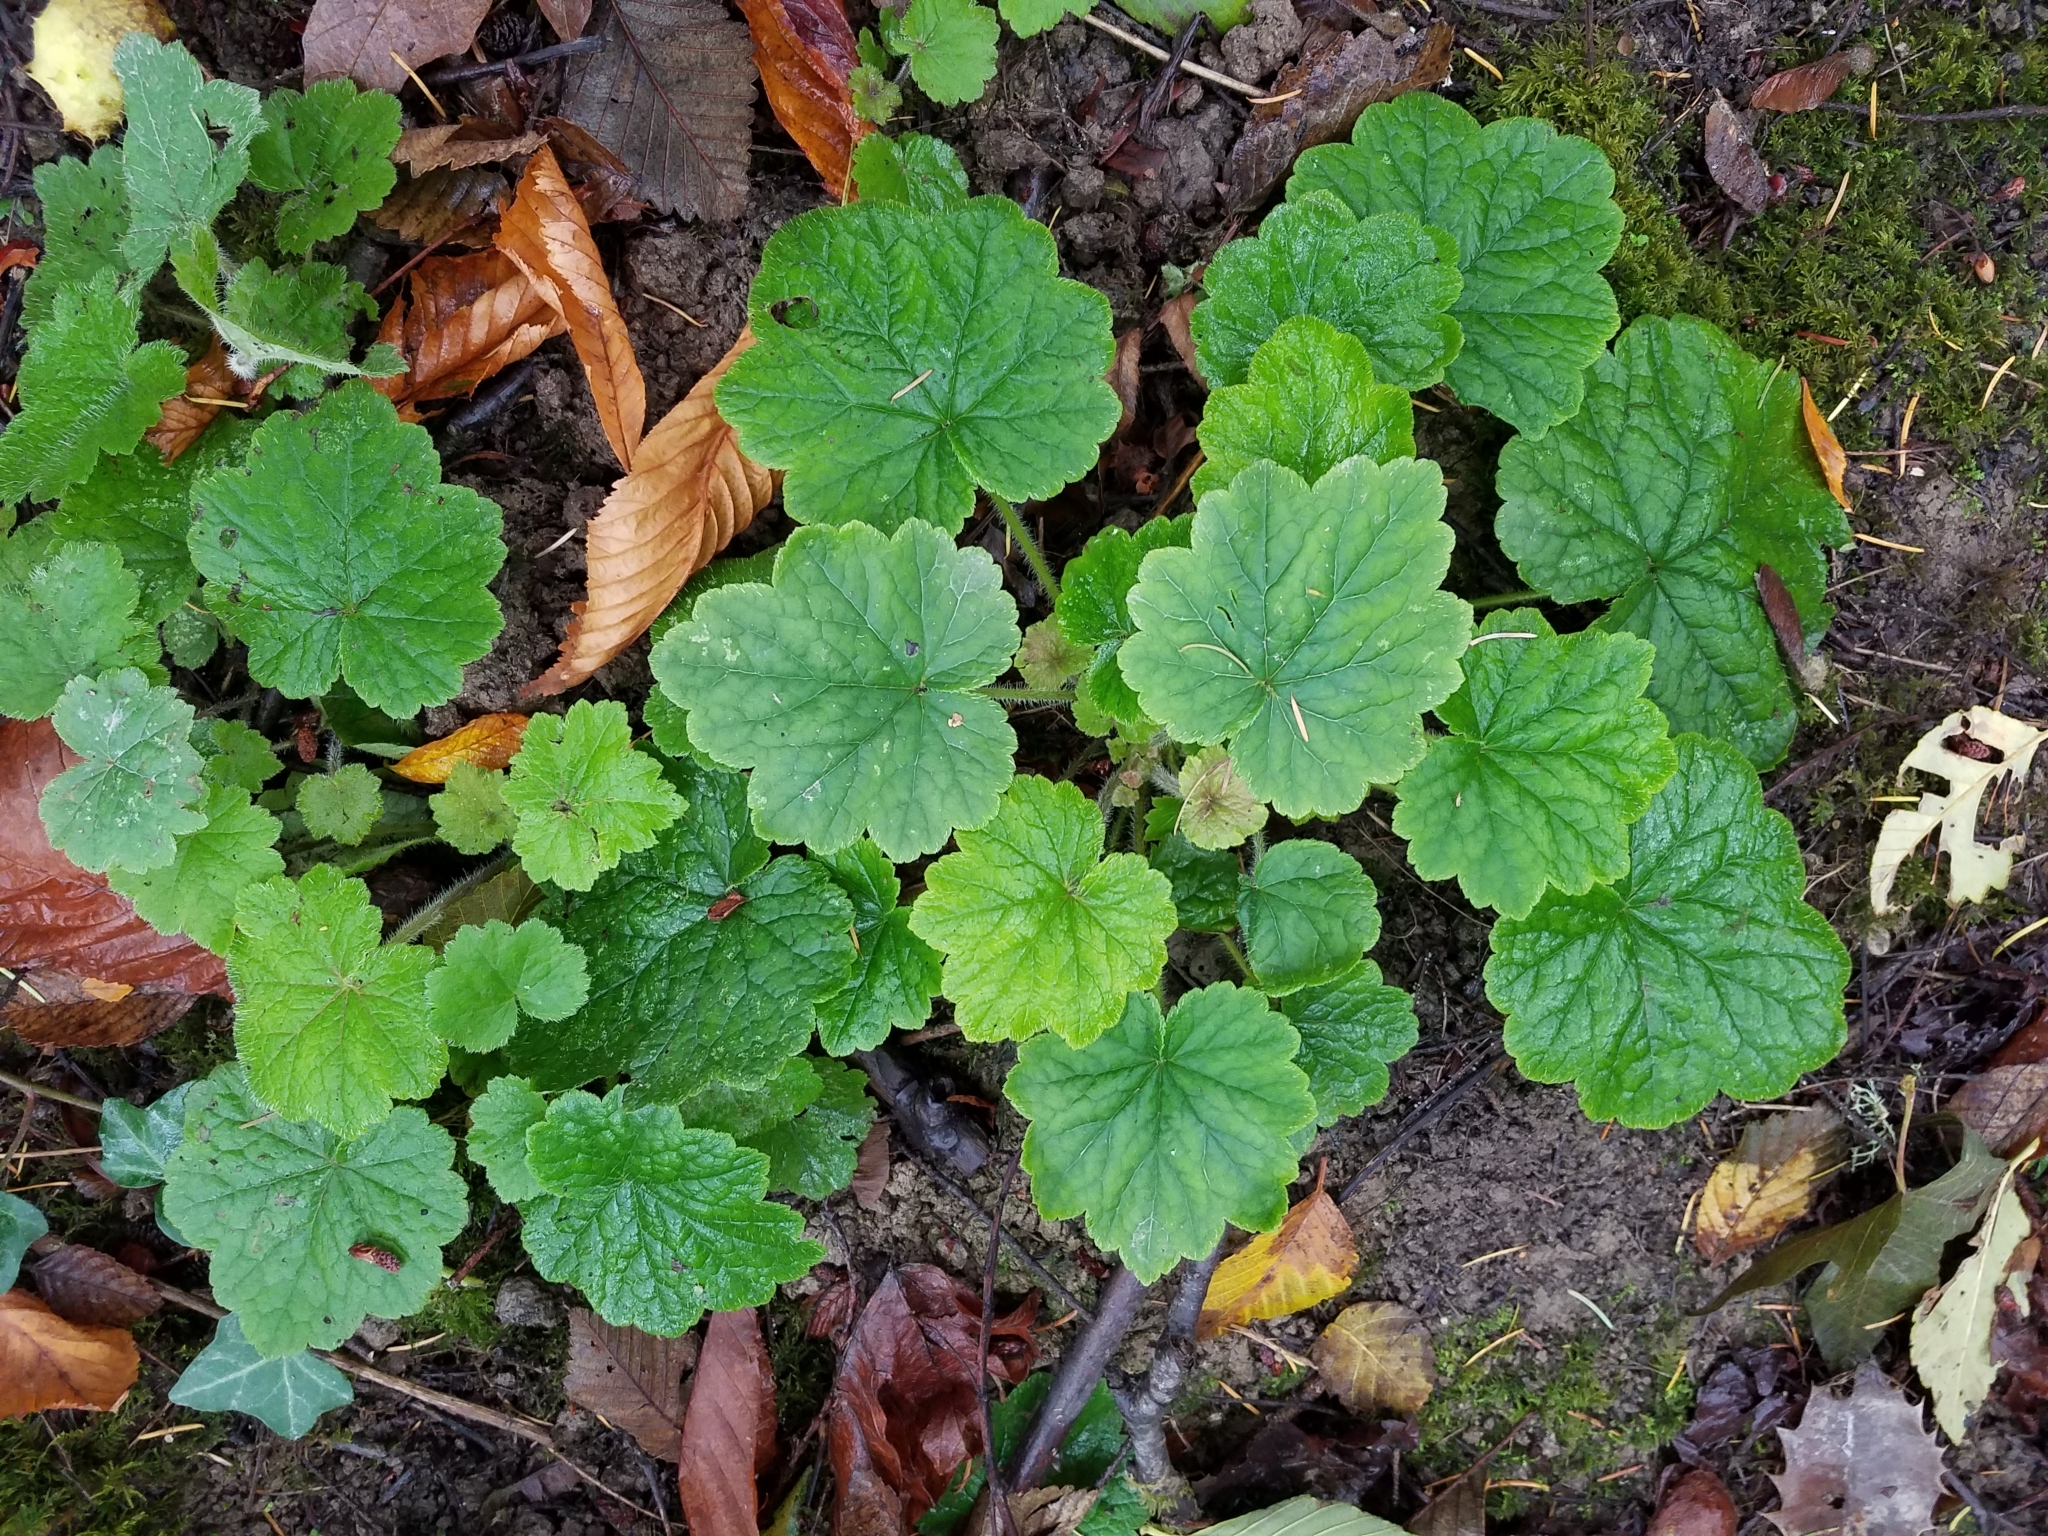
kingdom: Plantae
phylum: Tracheophyta
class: Magnoliopsida
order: Saxifragales
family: Saxifragaceae
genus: Tellima
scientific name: Tellima grandiflora
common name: Fringecups
